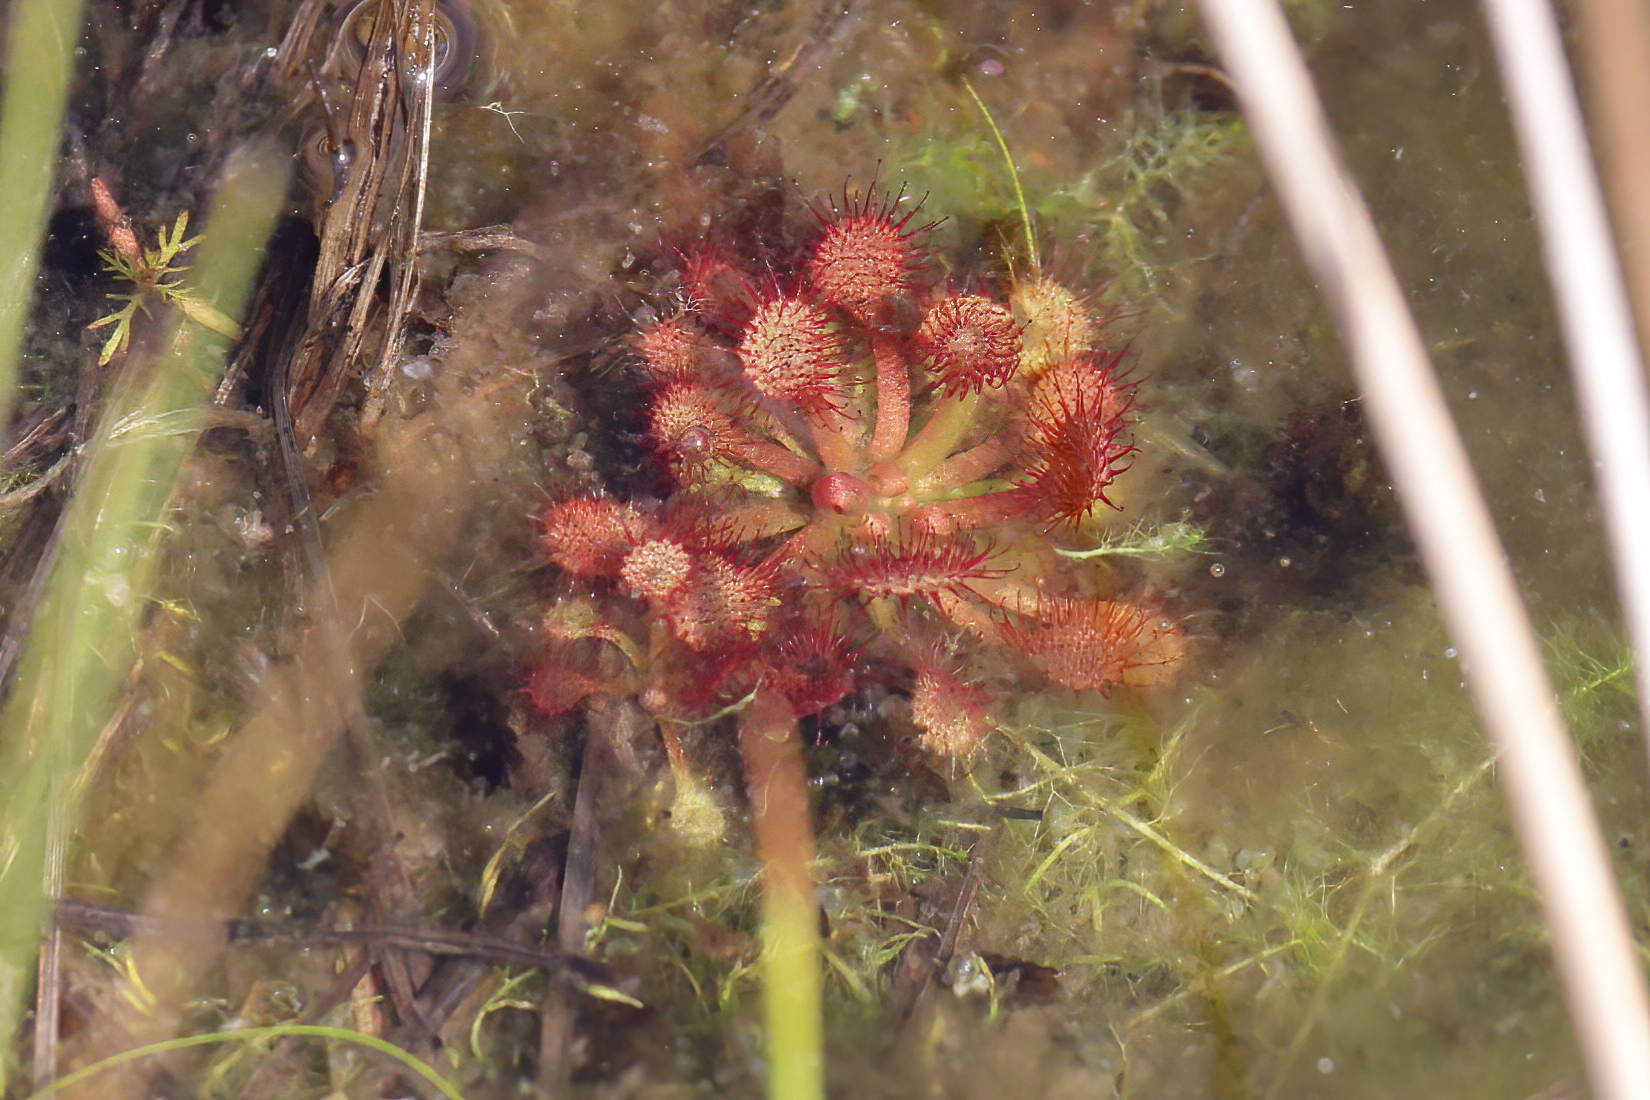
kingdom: Plantae
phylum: Tracheophyta
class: Magnoliopsida
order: Caryophyllales
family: Droseraceae
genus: Drosera
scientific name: Drosera capillaris
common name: Pink sundew
